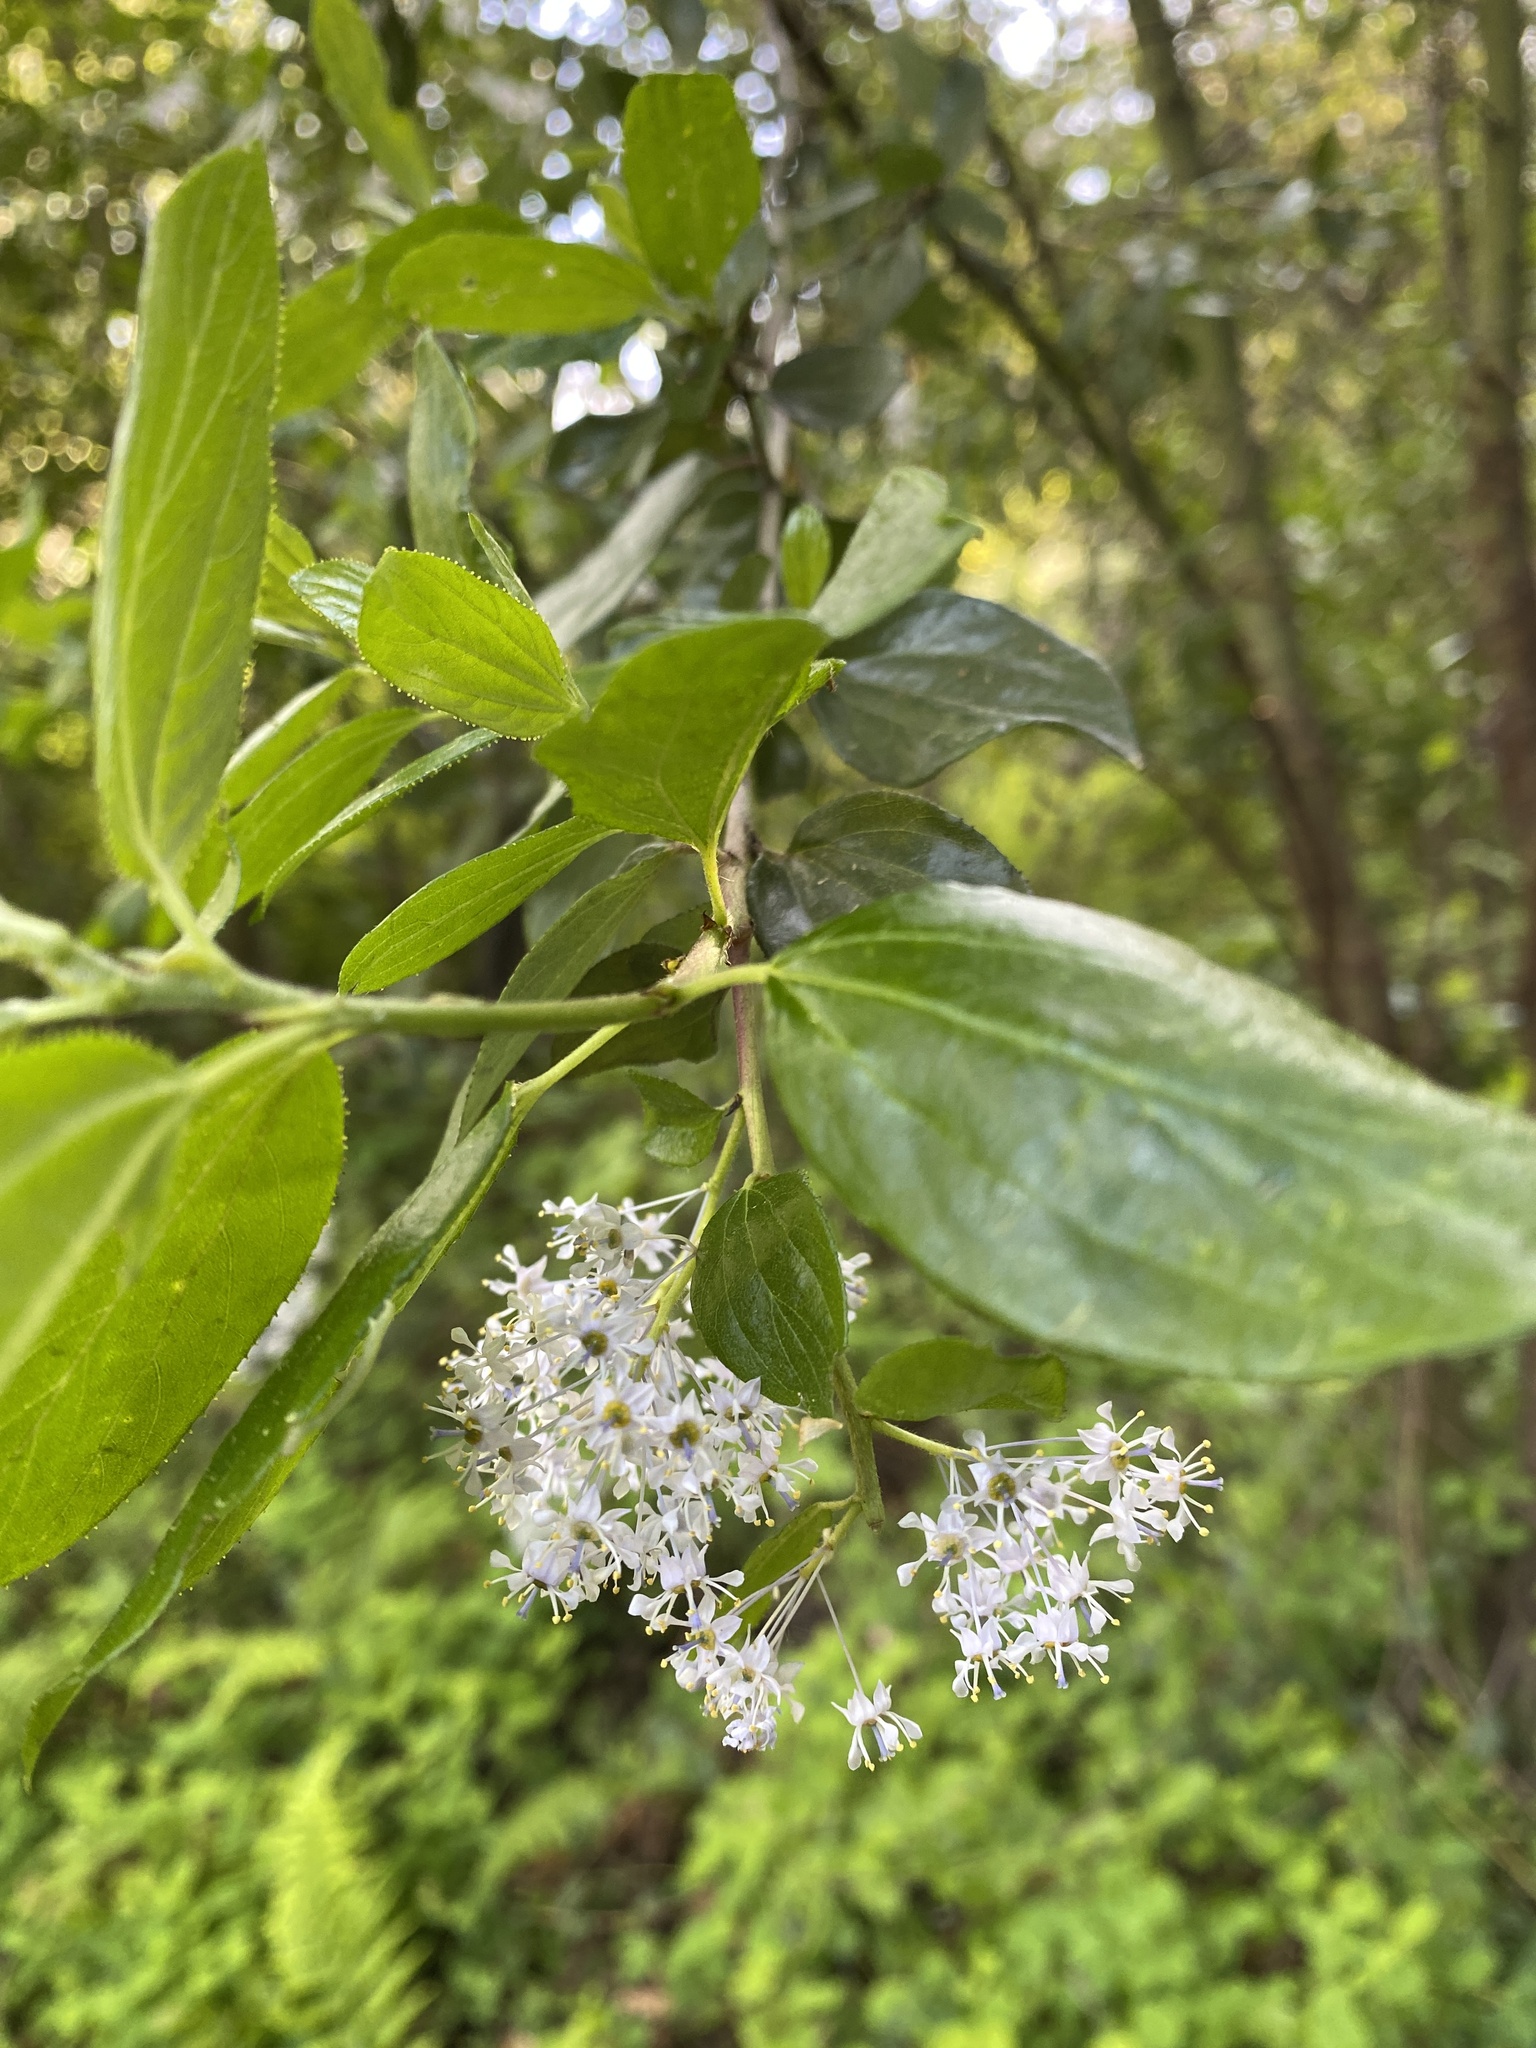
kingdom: Plantae
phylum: Tracheophyta
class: Magnoliopsida
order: Rosales
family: Rhamnaceae
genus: Ceanothus
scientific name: Ceanothus sorediatus
